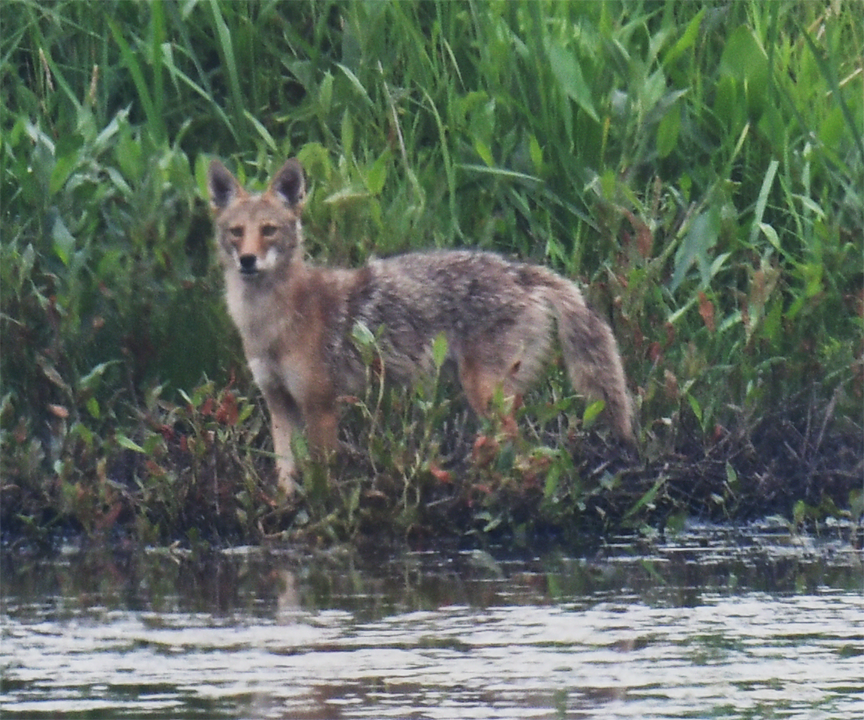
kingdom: Animalia
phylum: Chordata
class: Mammalia
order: Carnivora
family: Canidae
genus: Canis
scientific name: Canis latrans
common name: Coyote
